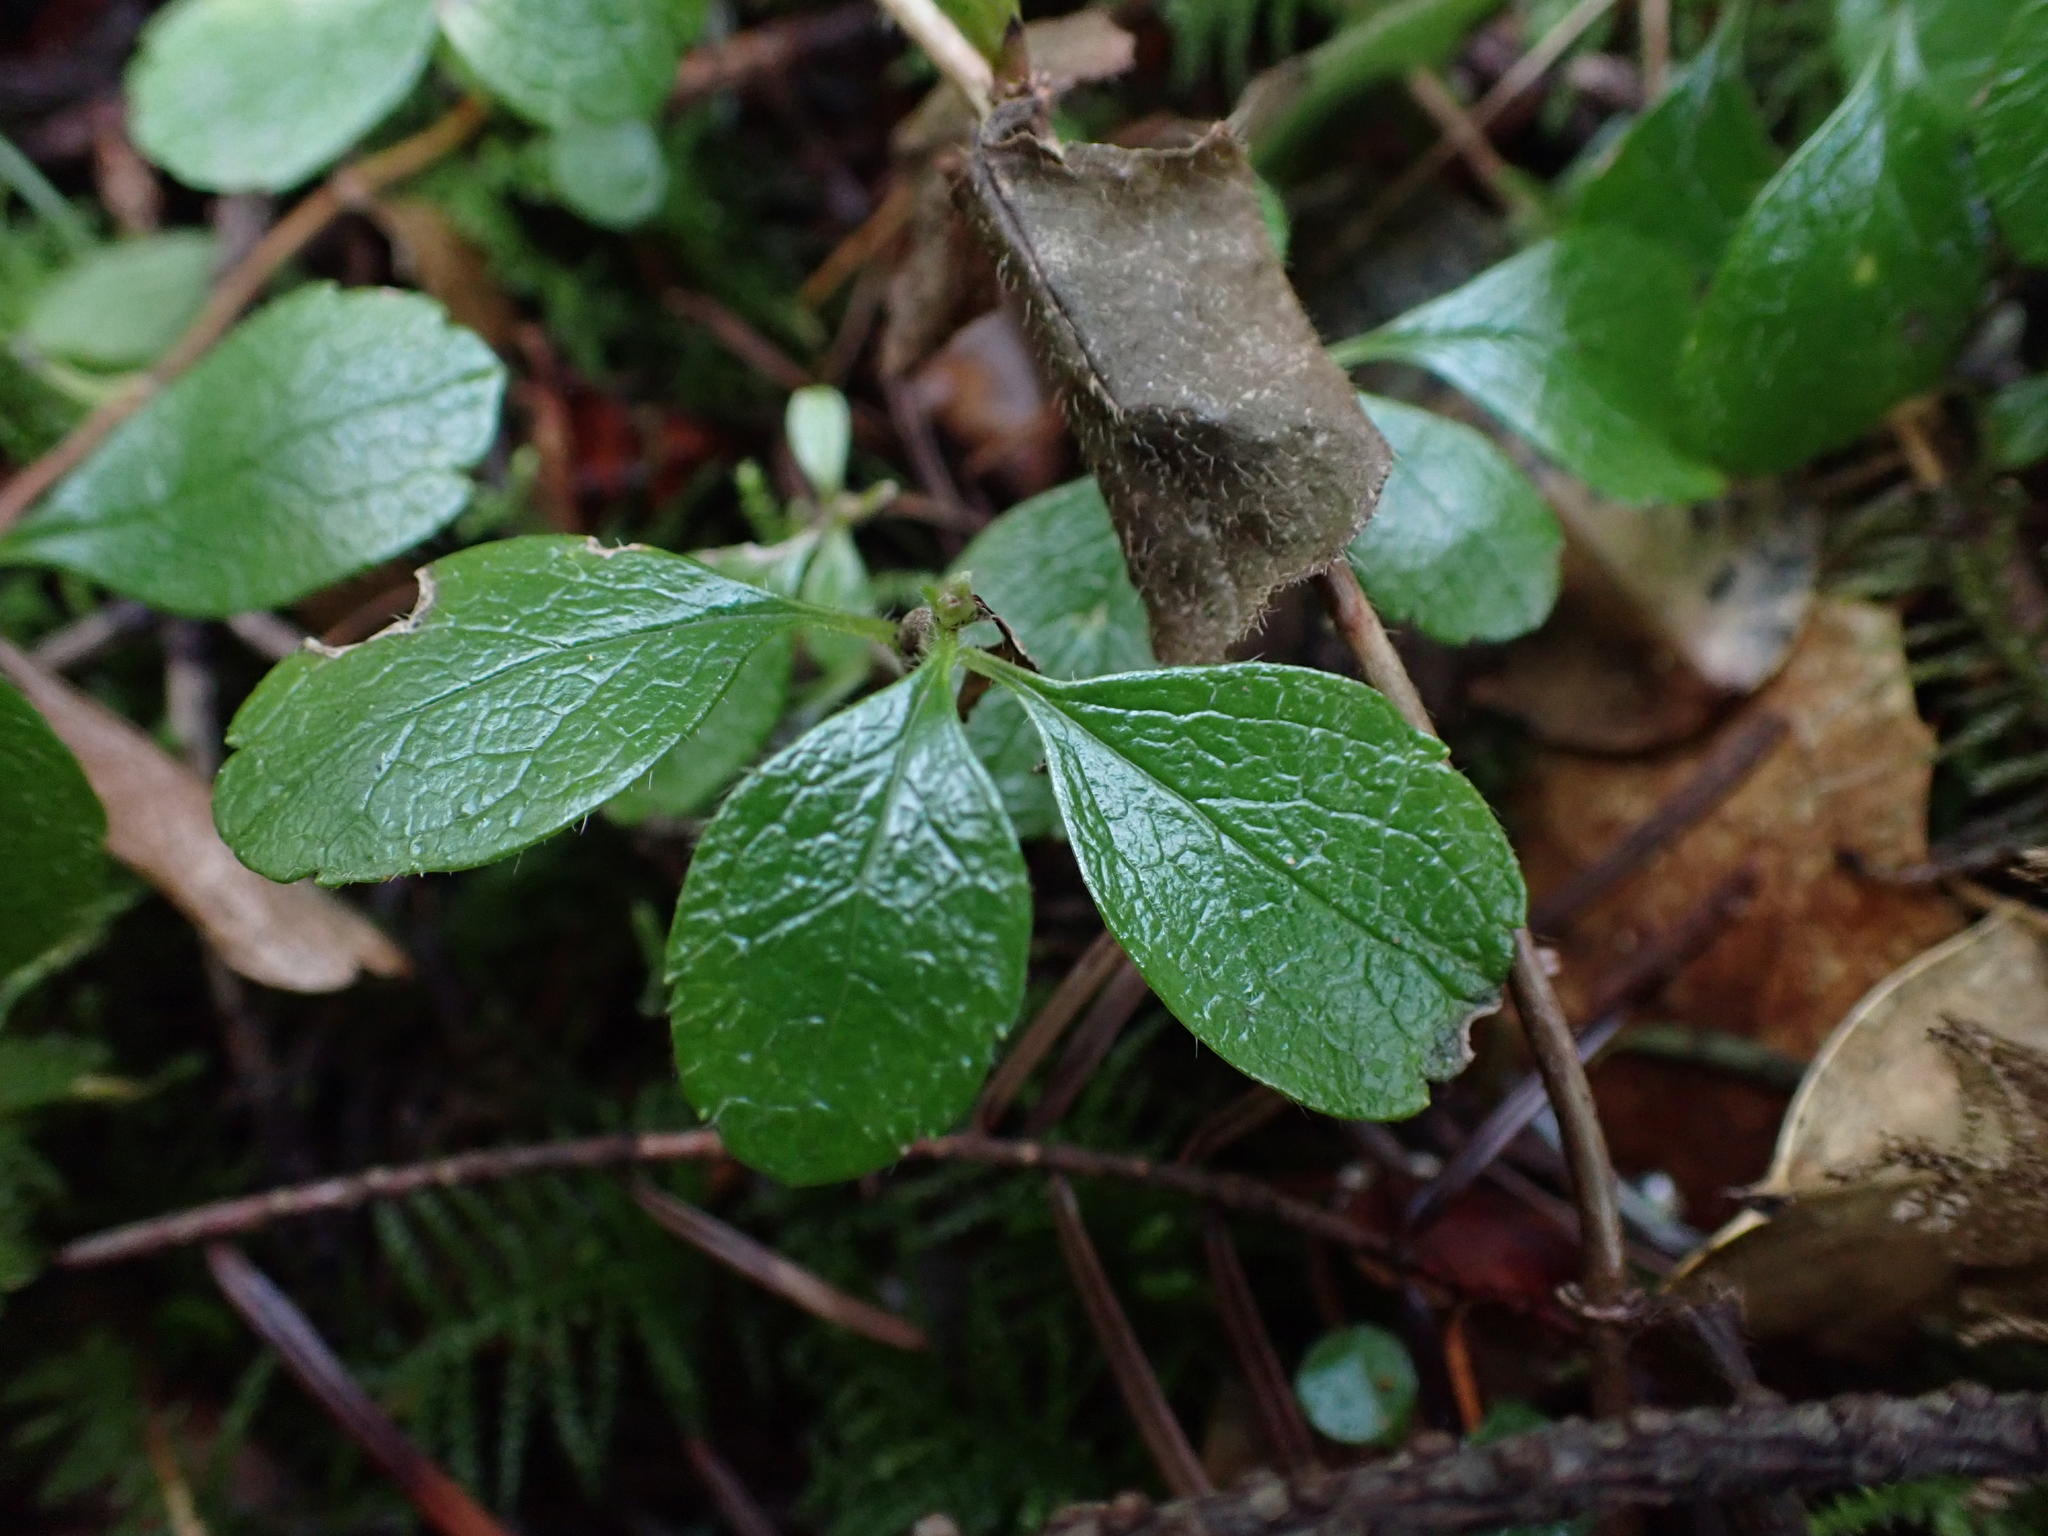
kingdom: Plantae
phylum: Tracheophyta
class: Magnoliopsida
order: Dipsacales
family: Caprifoliaceae
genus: Linnaea
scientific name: Linnaea borealis
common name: Twinflower
